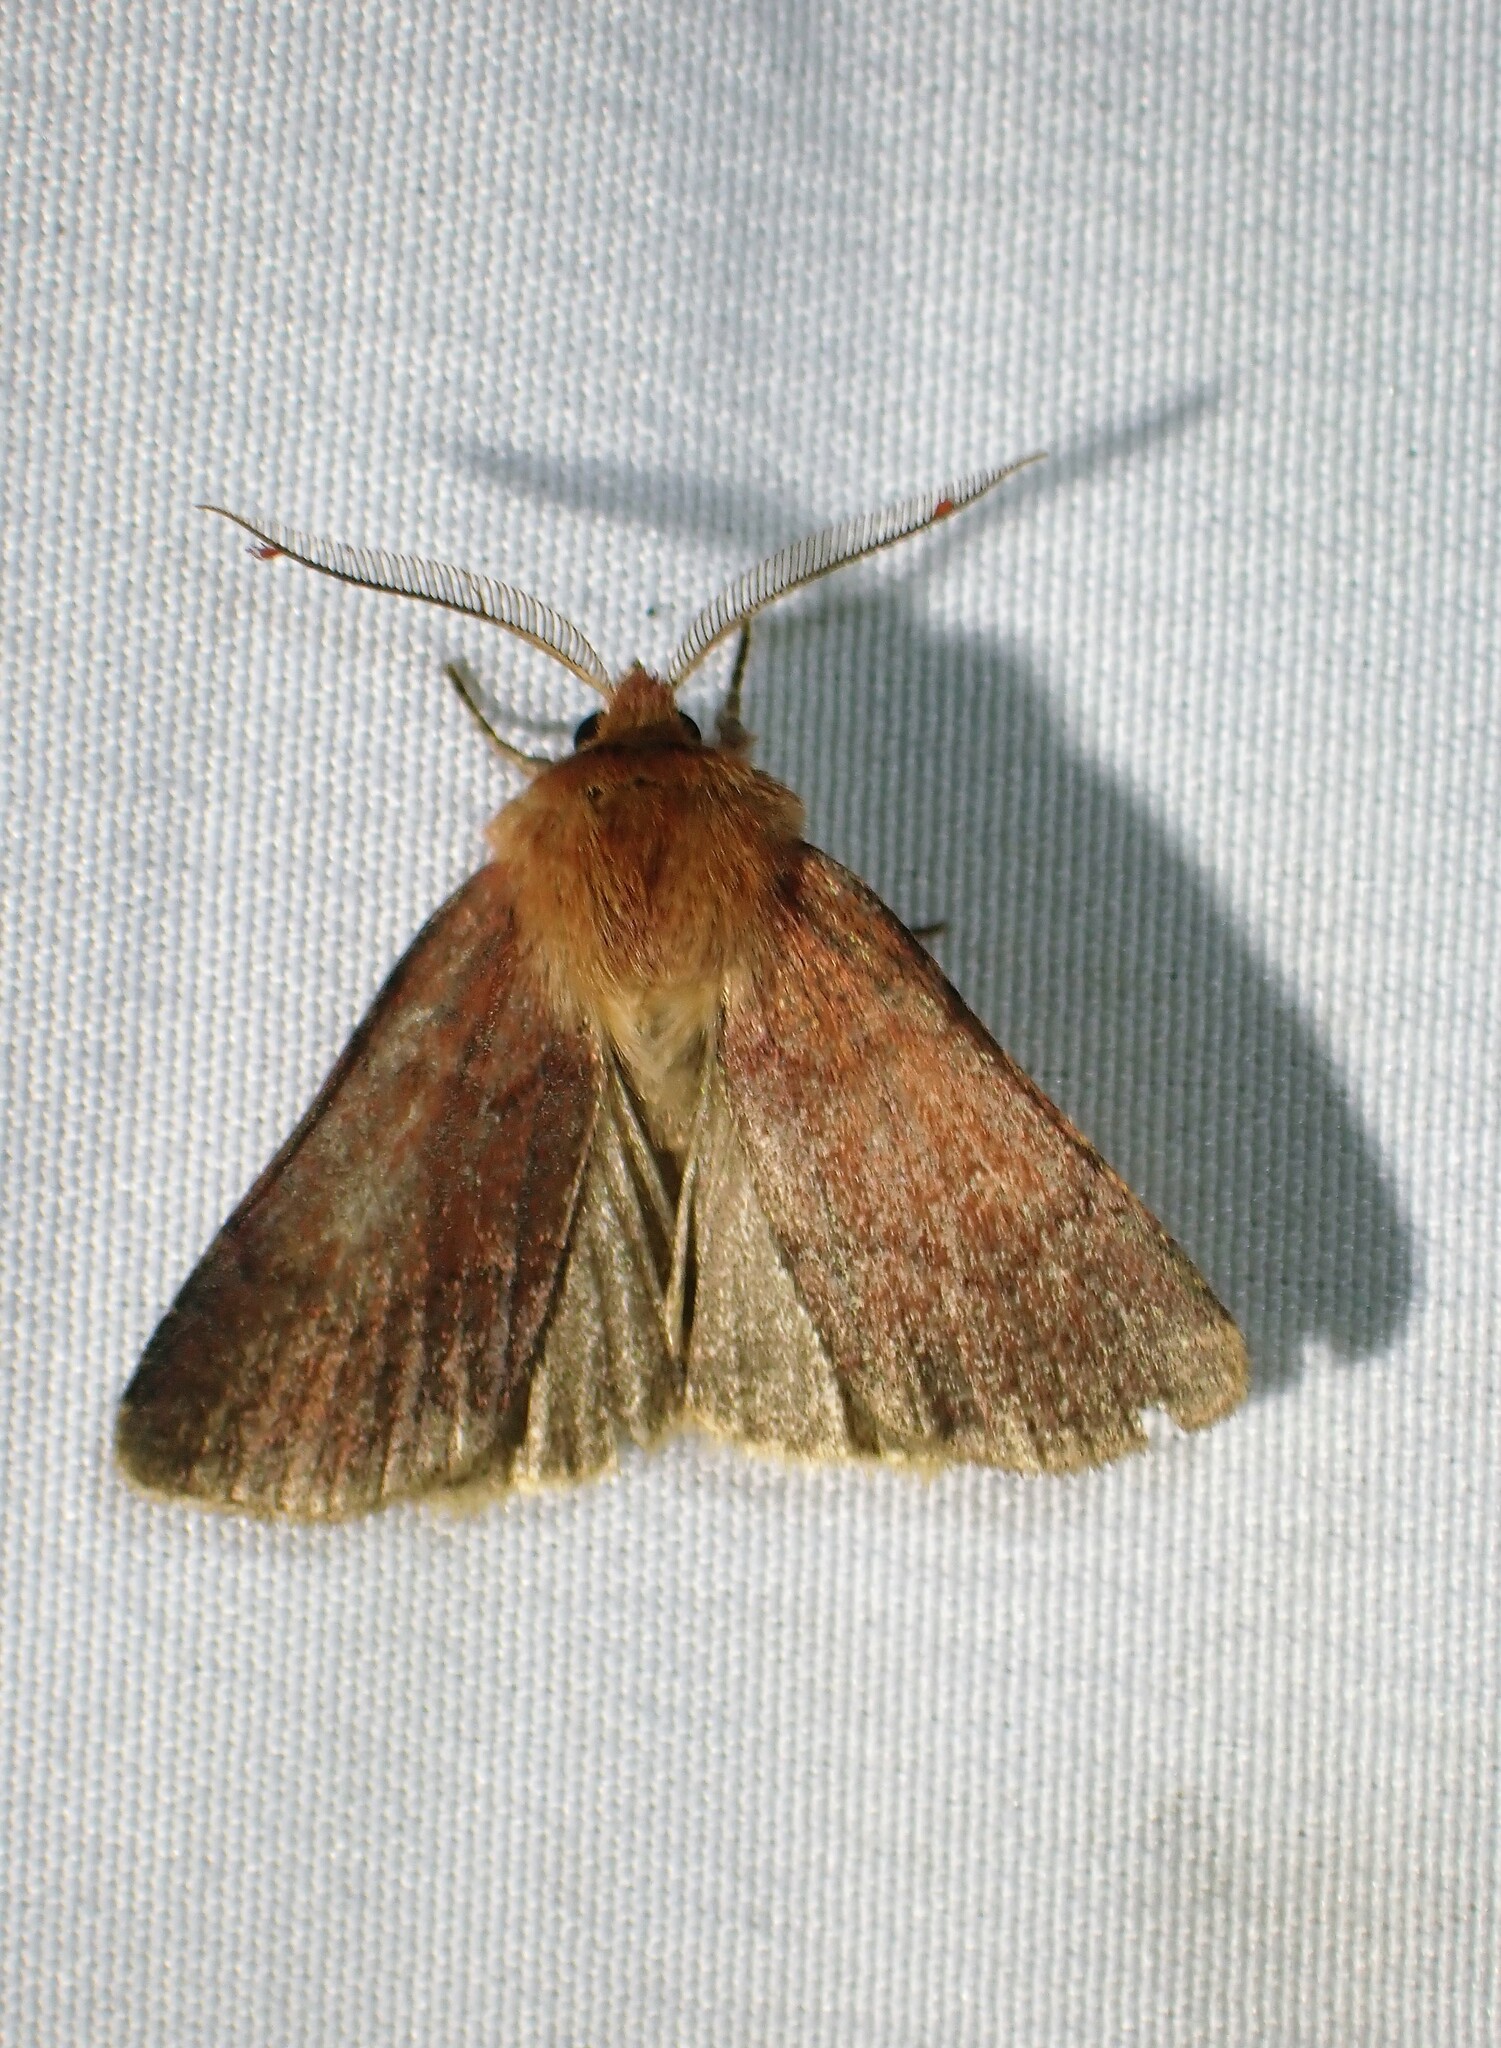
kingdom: Animalia
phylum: Arthropoda
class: Insecta
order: Lepidoptera
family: Noctuidae
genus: Hemipachnobia
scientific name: Hemipachnobia monochromatea
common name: Sundew cutworm moth
